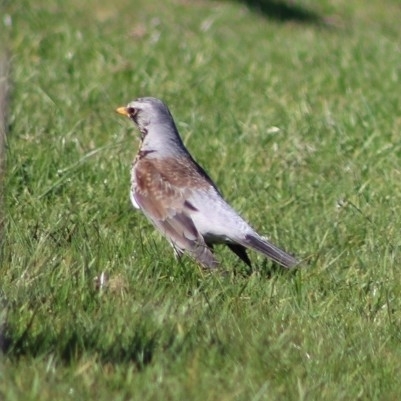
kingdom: Animalia
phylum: Chordata
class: Aves
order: Passeriformes
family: Turdidae
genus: Turdus
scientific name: Turdus pilaris
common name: Fieldfare
